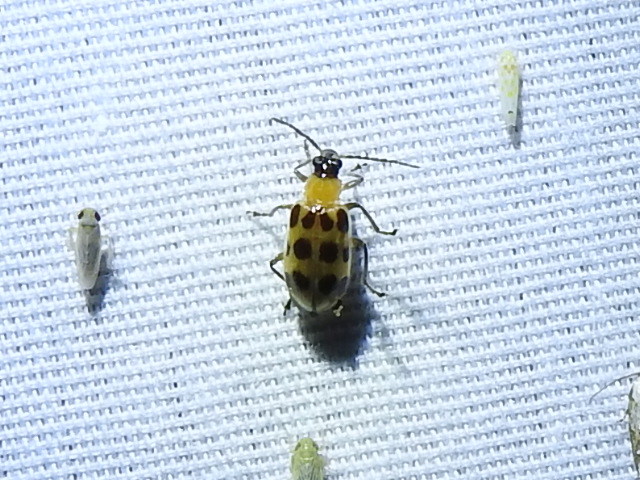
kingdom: Animalia
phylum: Arthropoda
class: Insecta
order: Coleoptera
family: Chrysomelidae
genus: Diabrotica
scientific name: Diabrotica undecimpunctata
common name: Spotted cucumber beetle
